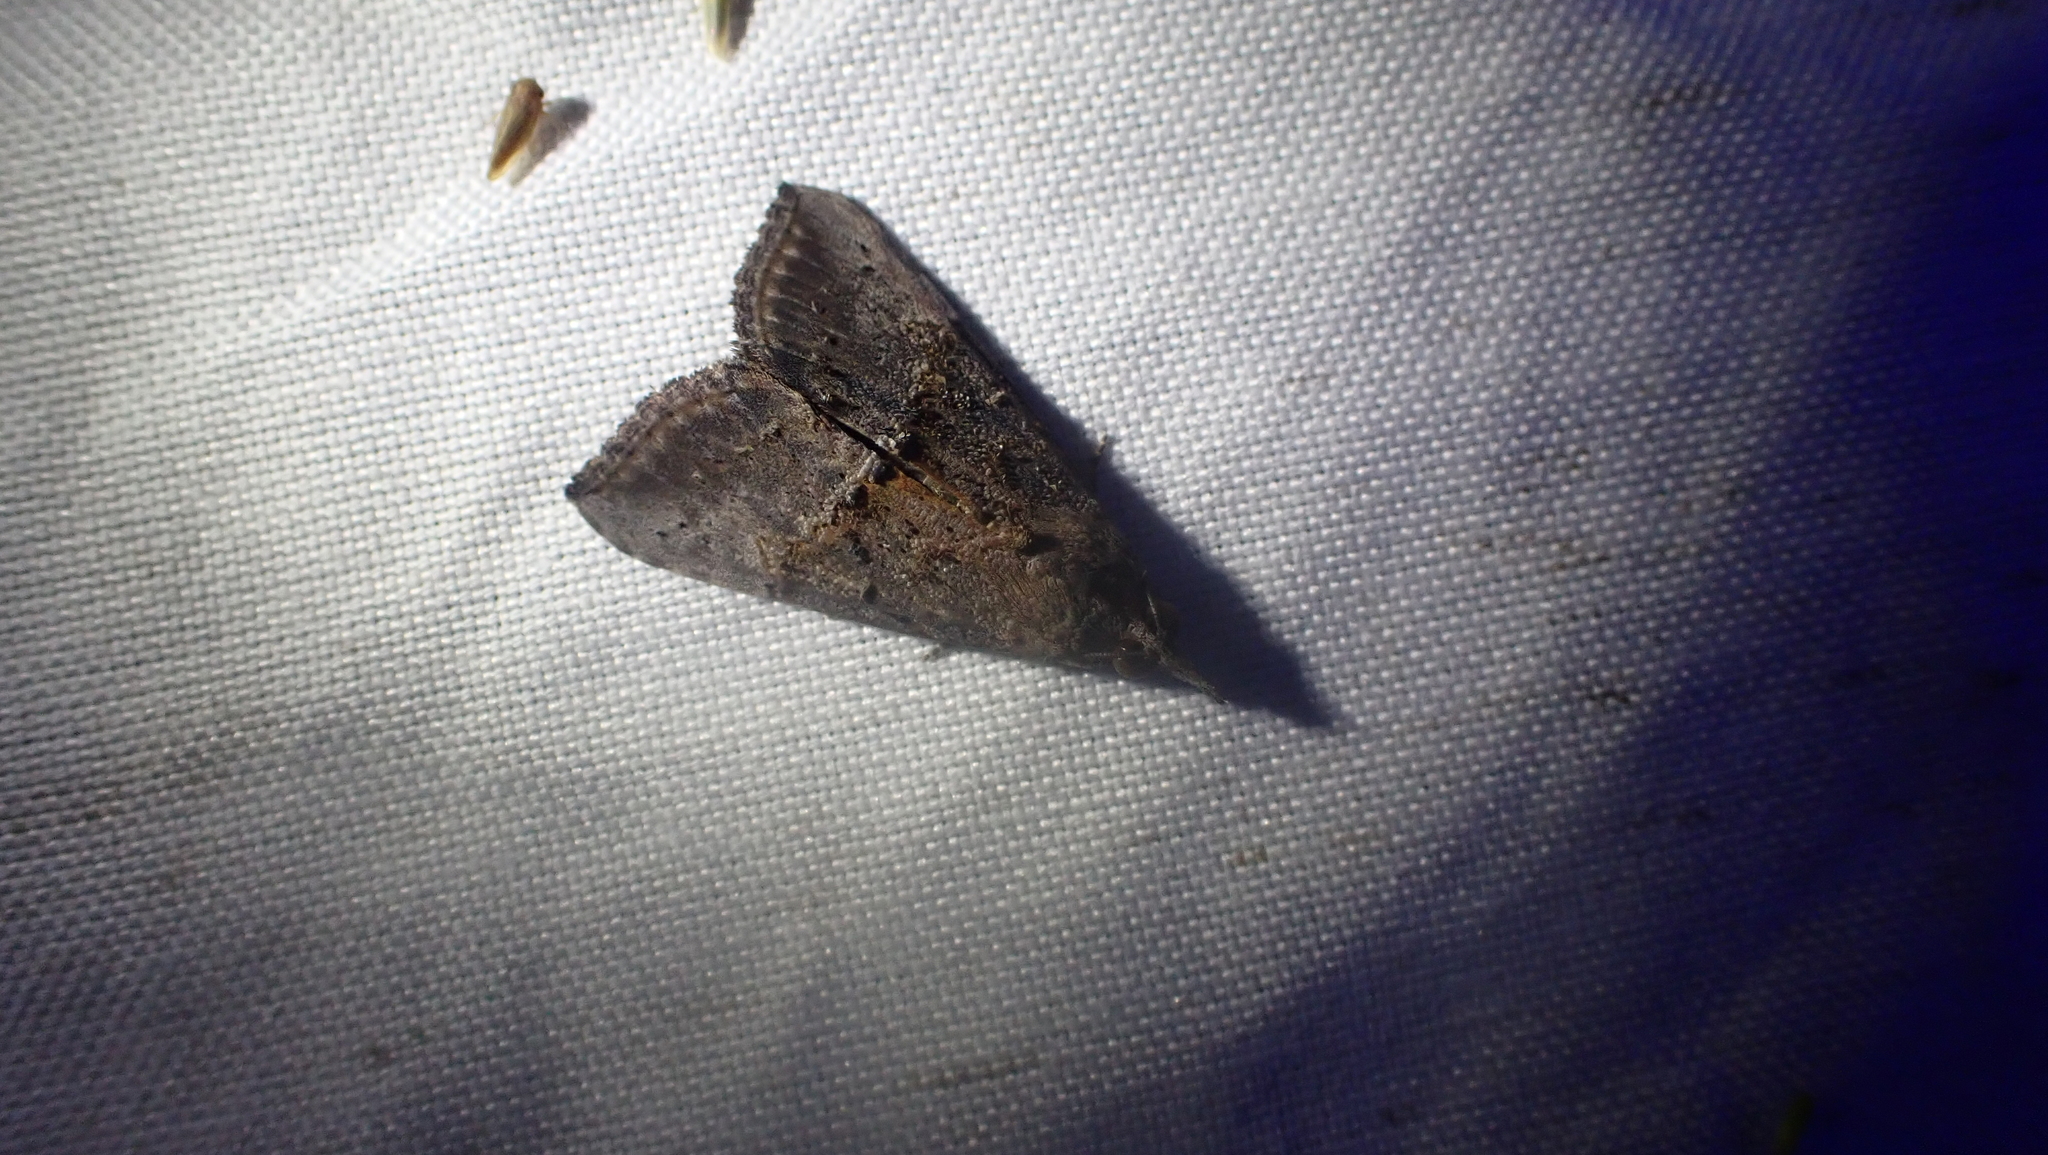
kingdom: Animalia
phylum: Arthropoda
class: Insecta
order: Lepidoptera
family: Erebidae
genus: Hypena
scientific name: Hypena scabra
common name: Green cloverworm
